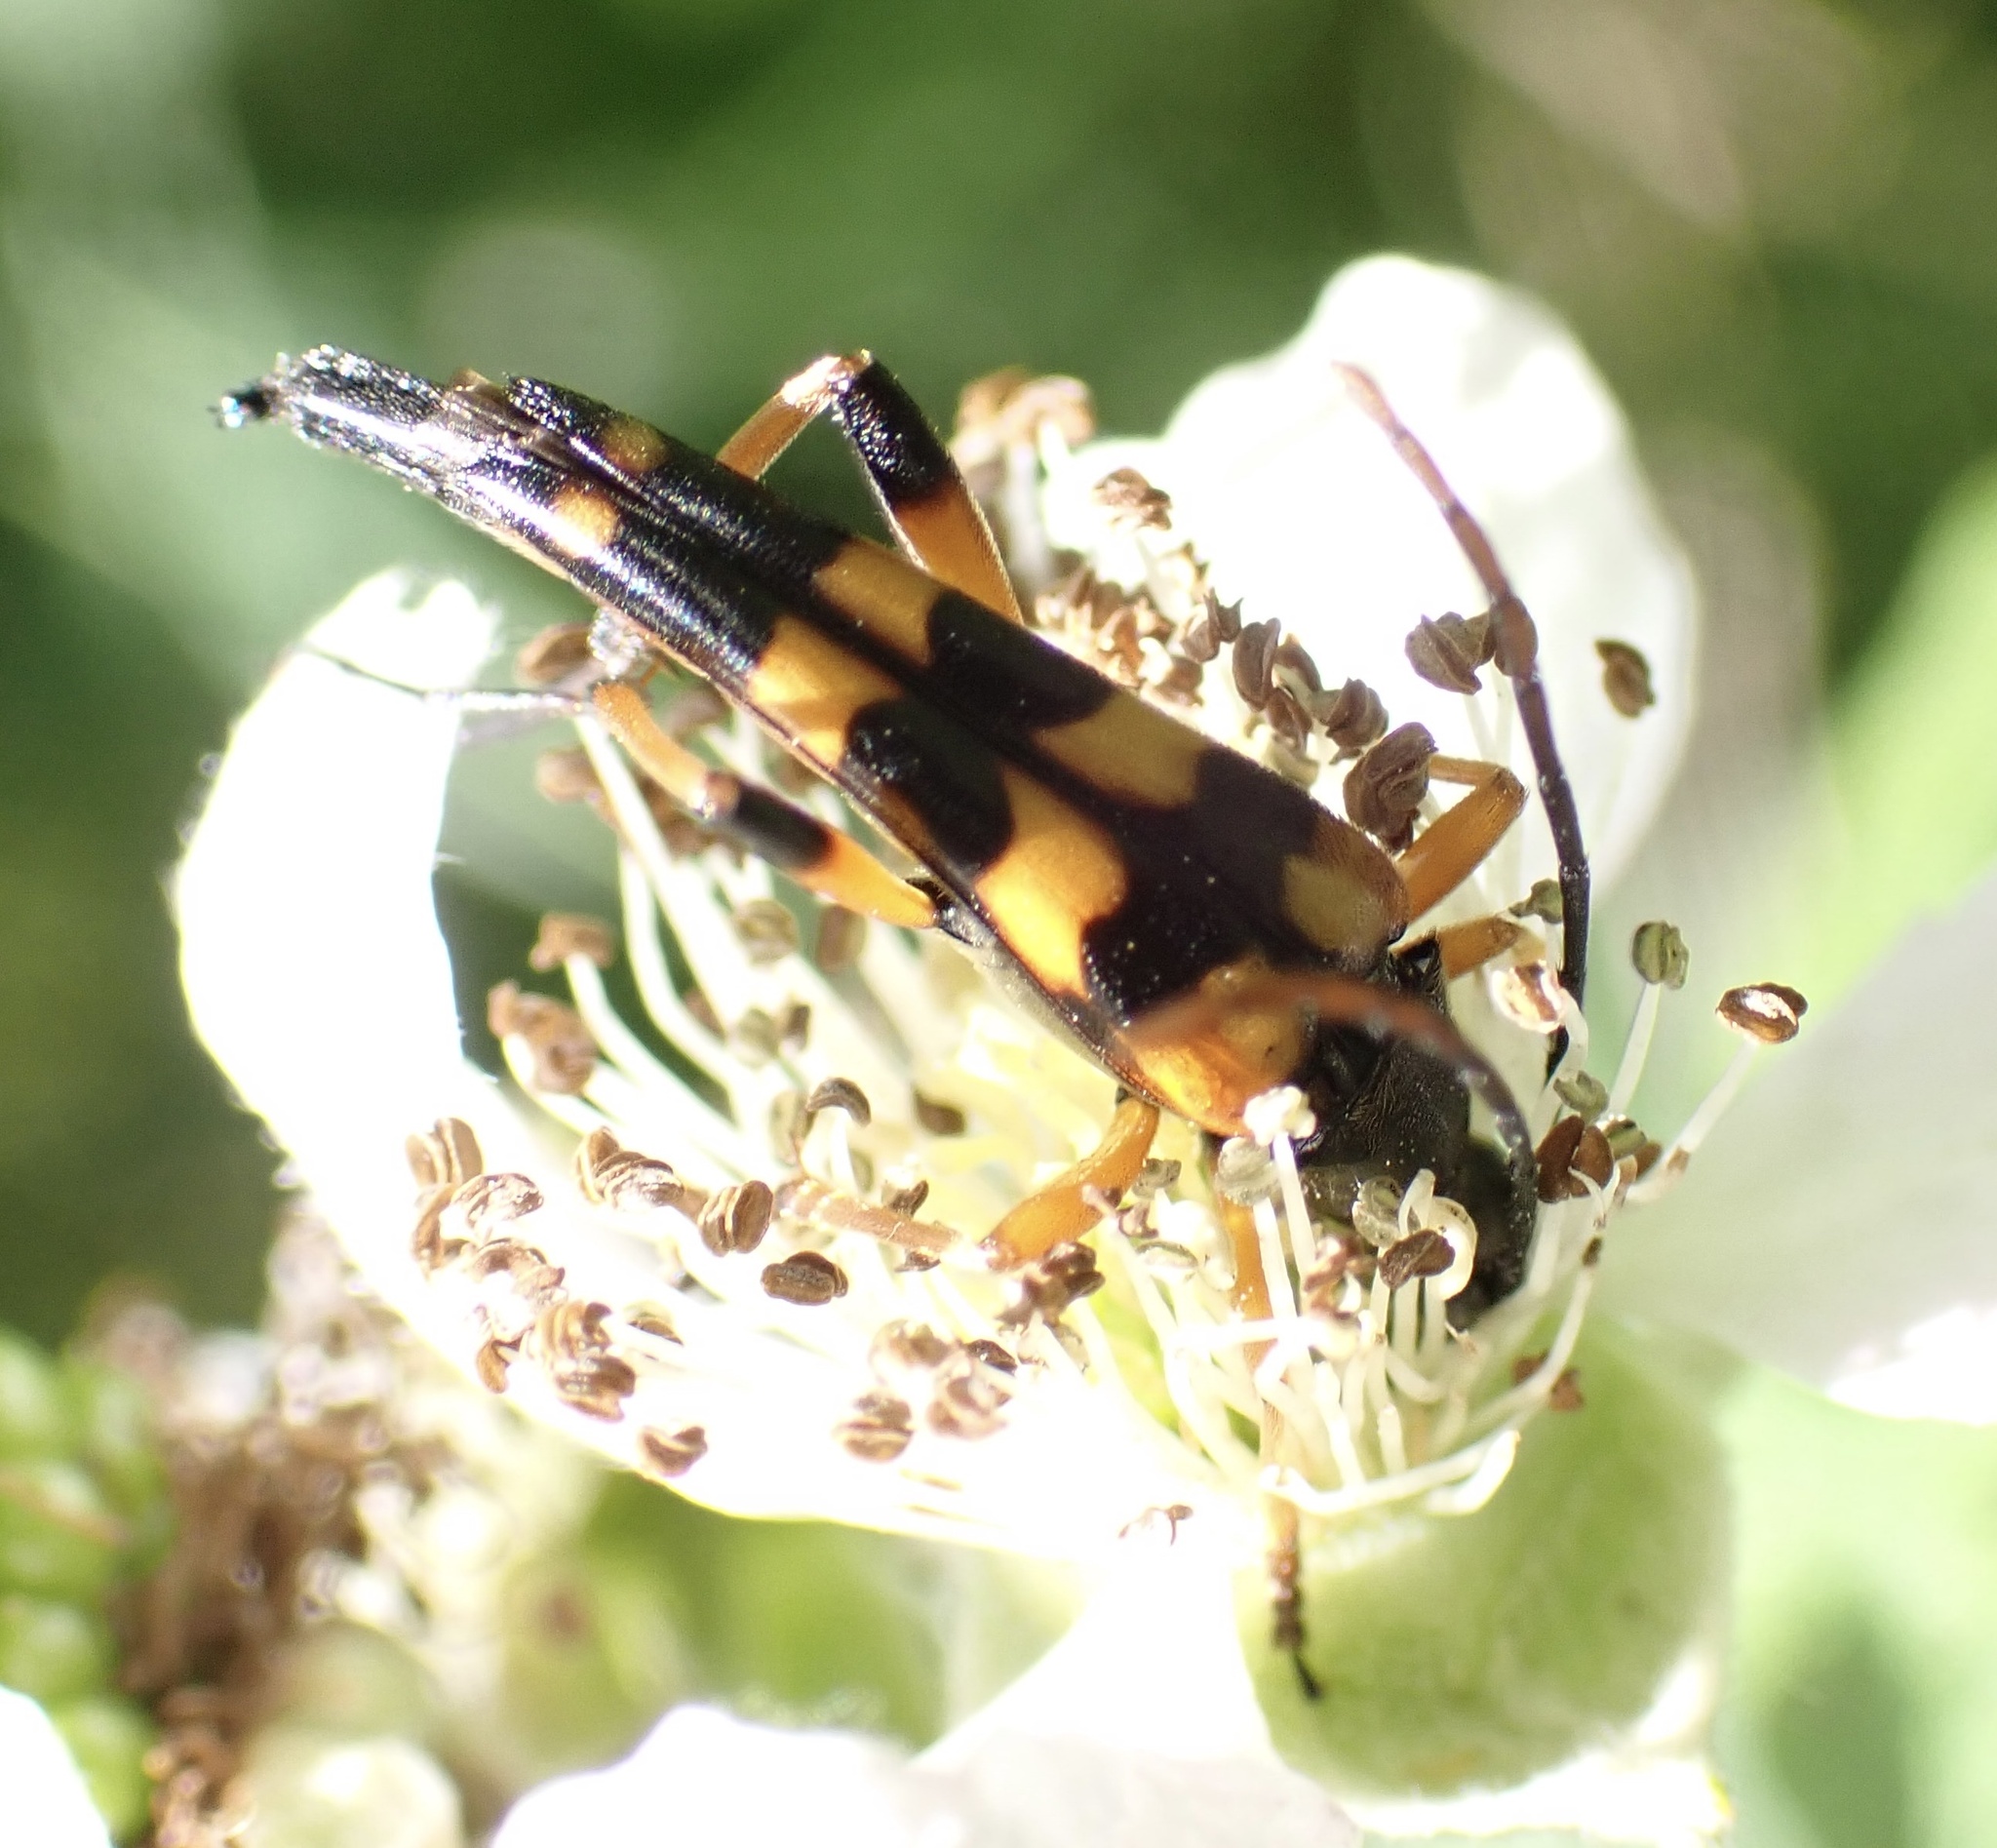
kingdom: Animalia
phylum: Arthropoda
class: Insecta
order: Coleoptera
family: Cerambycidae
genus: Strangalia
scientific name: Strangalia attenuata
